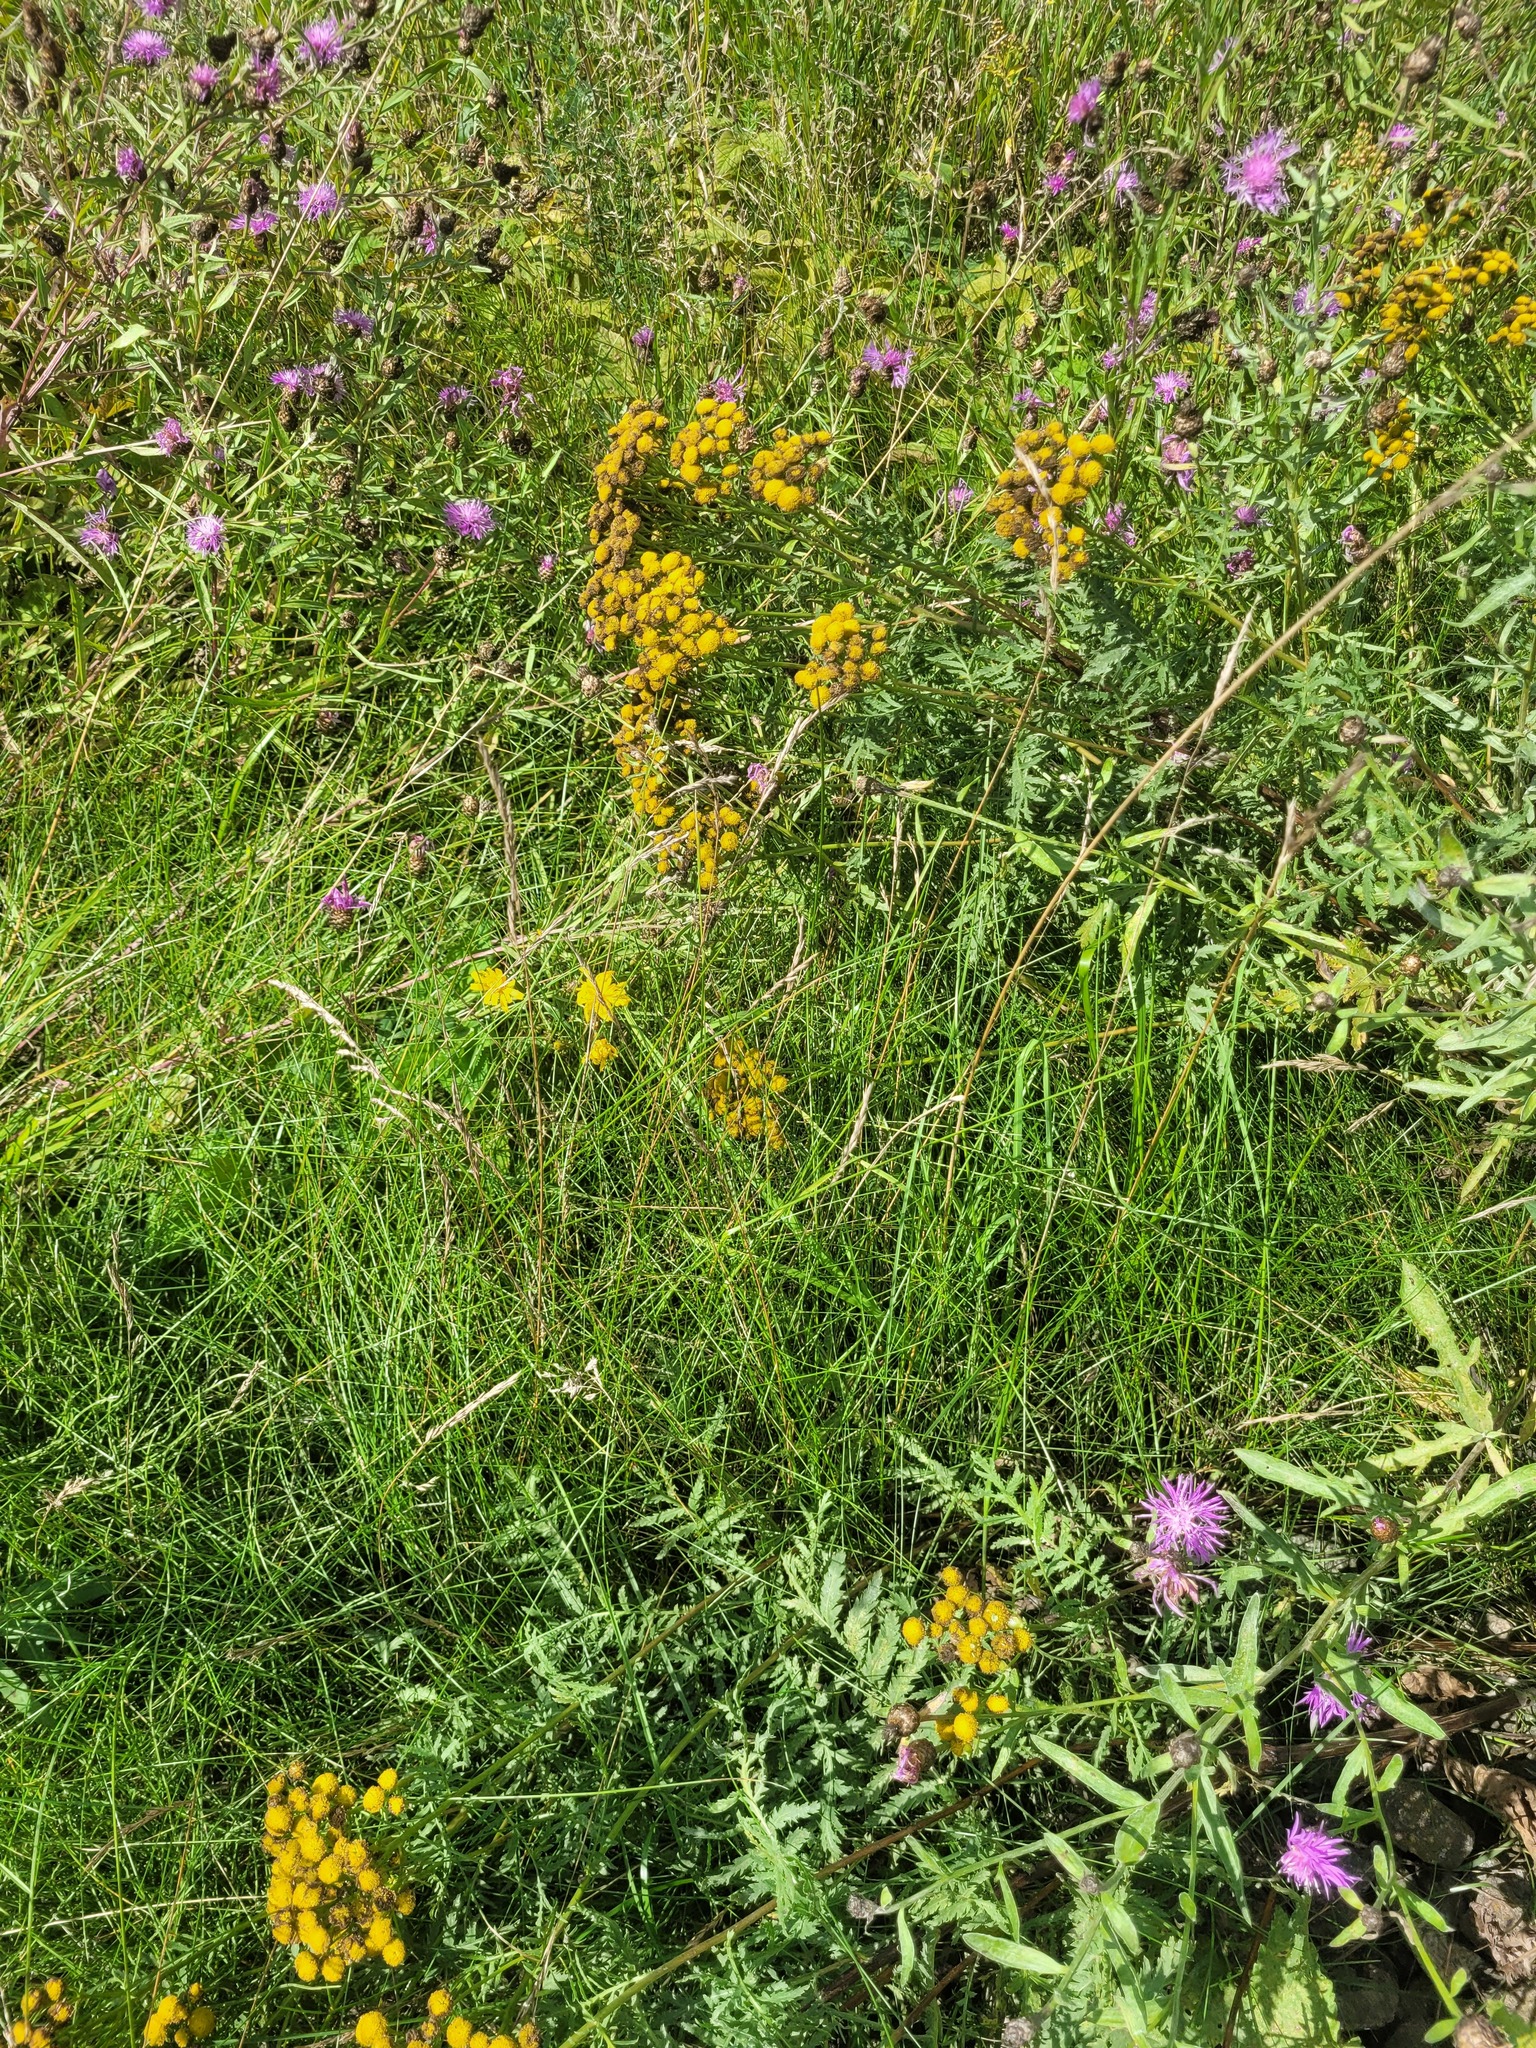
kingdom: Plantae
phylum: Tracheophyta
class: Liliopsida
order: Poales
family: Poaceae
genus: Festuca
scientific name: Festuca rubra
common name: Red fescue
